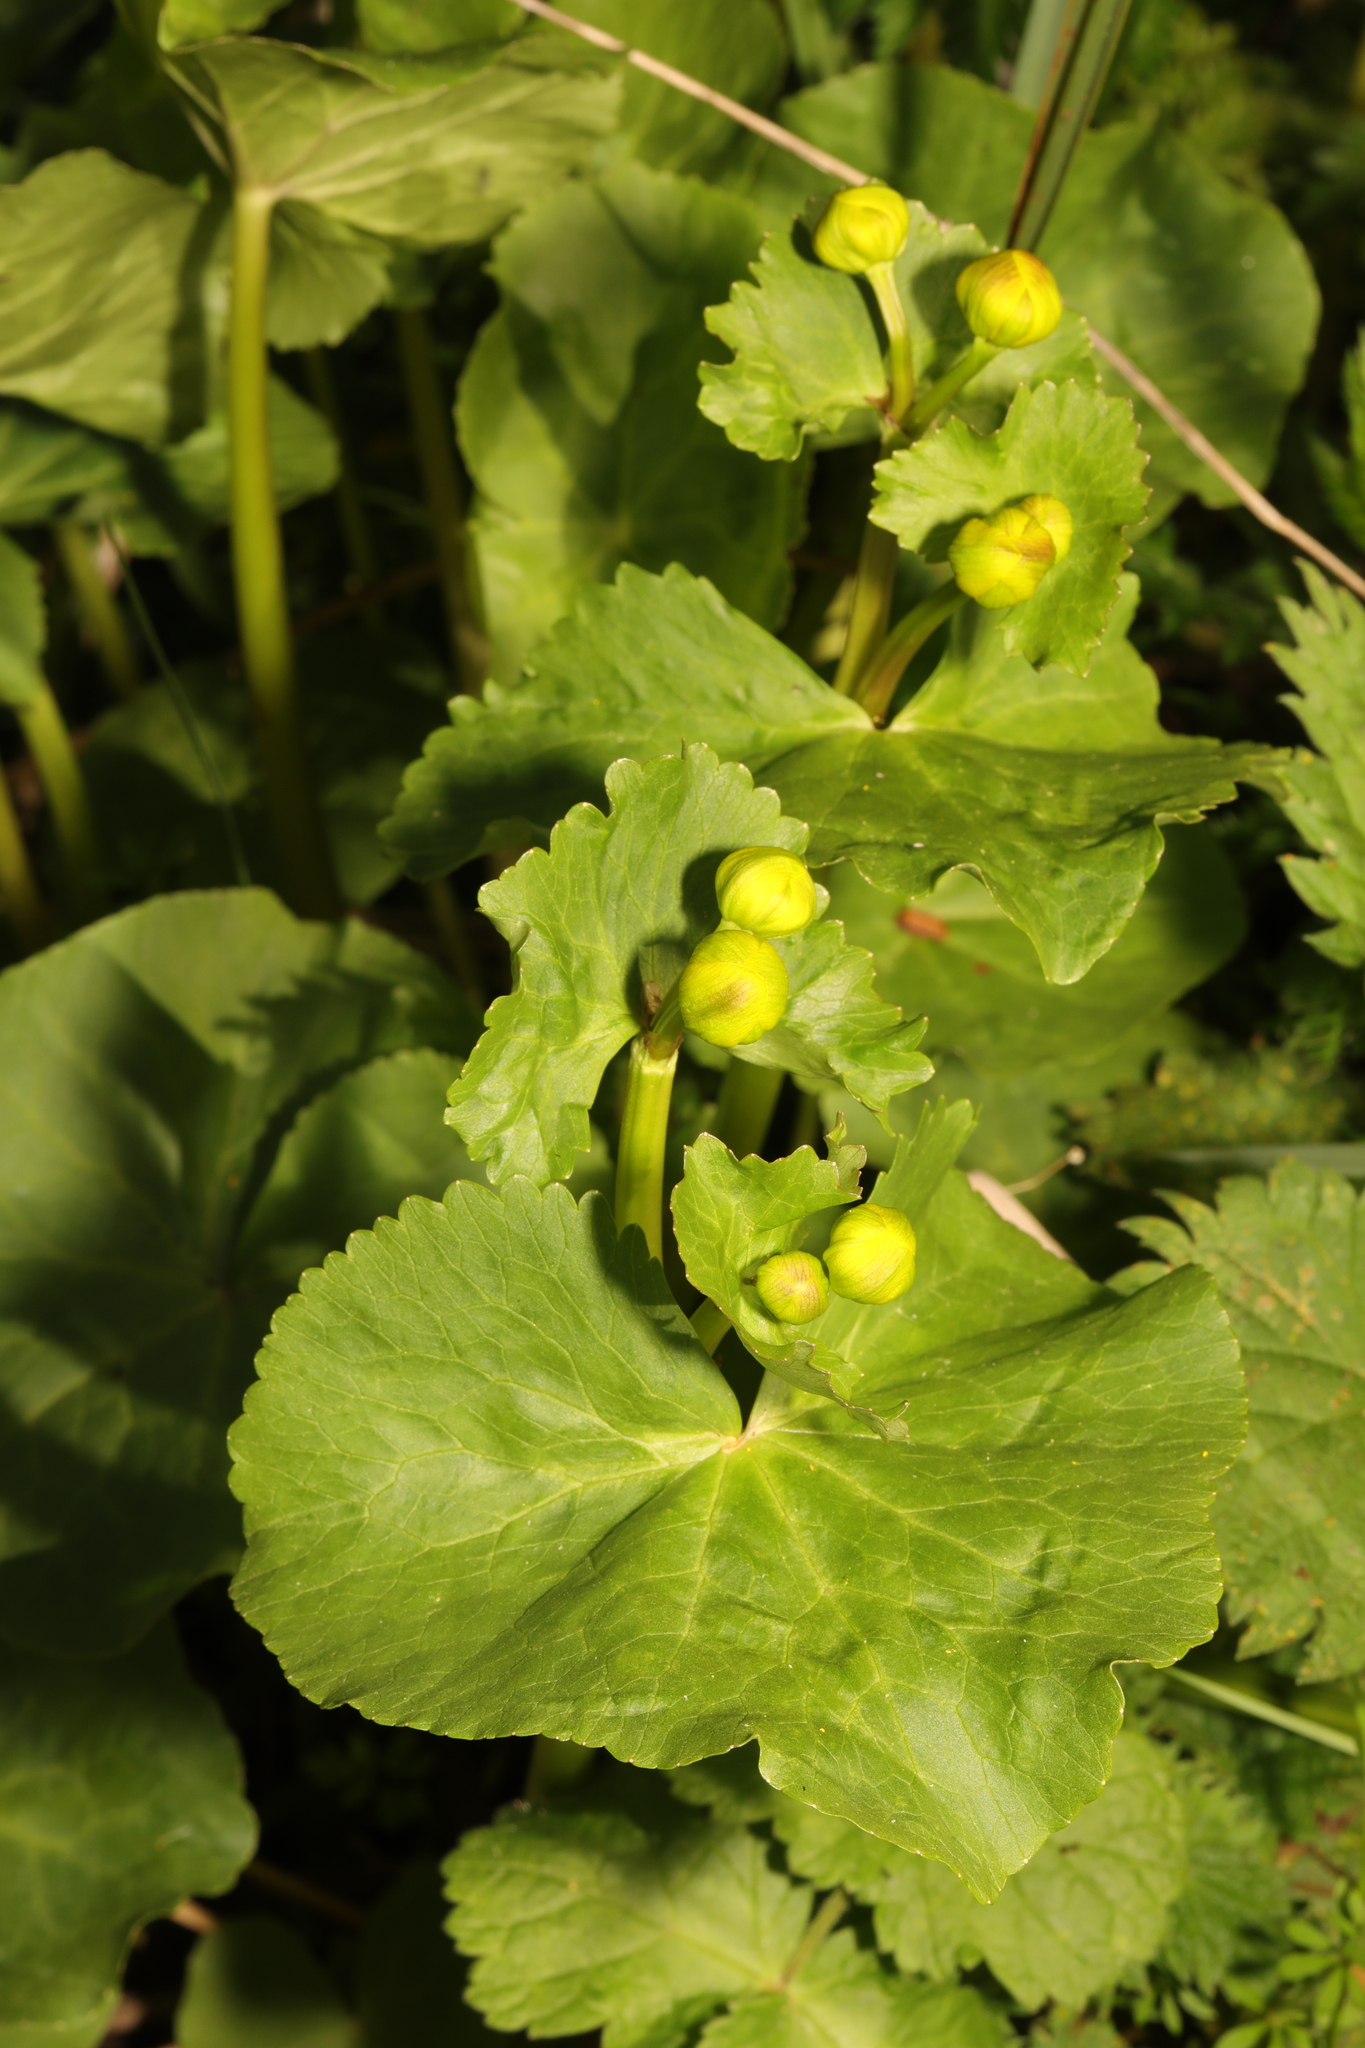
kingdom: Plantae
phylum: Tracheophyta
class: Magnoliopsida
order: Ranunculales
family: Ranunculaceae
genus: Caltha
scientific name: Caltha palustris
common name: Marsh marigold
